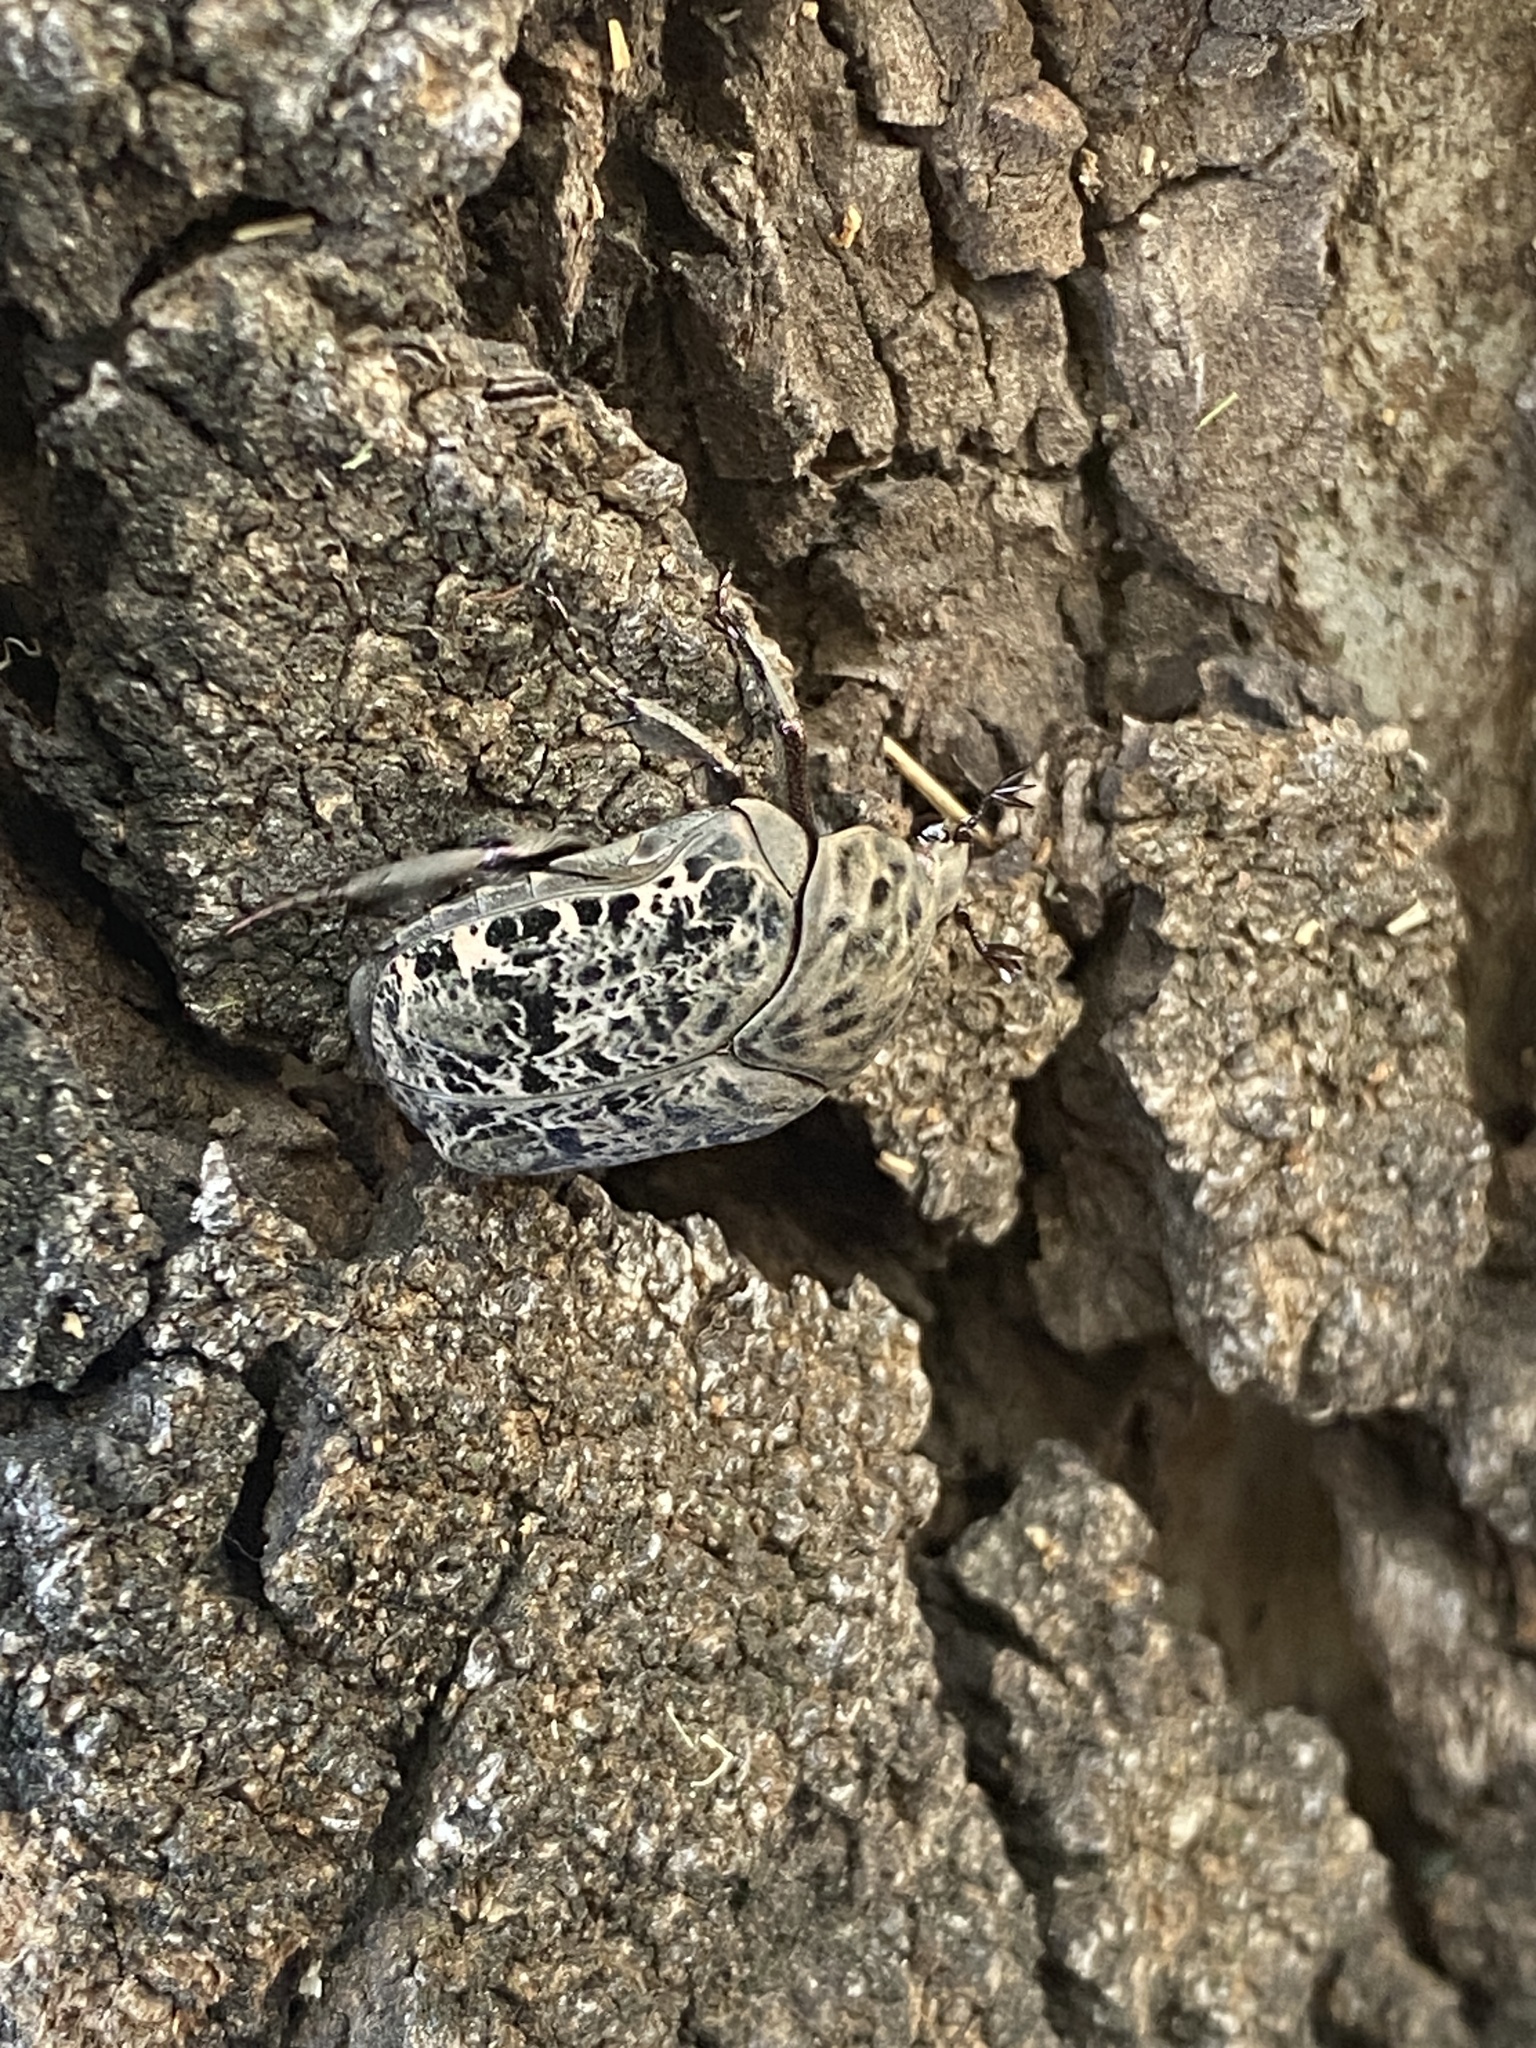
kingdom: Animalia
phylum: Arthropoda
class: Insecta
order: Coleoptera
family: Scarabaeidae
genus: Gymnetis
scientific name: Gymnetis chalcipes
